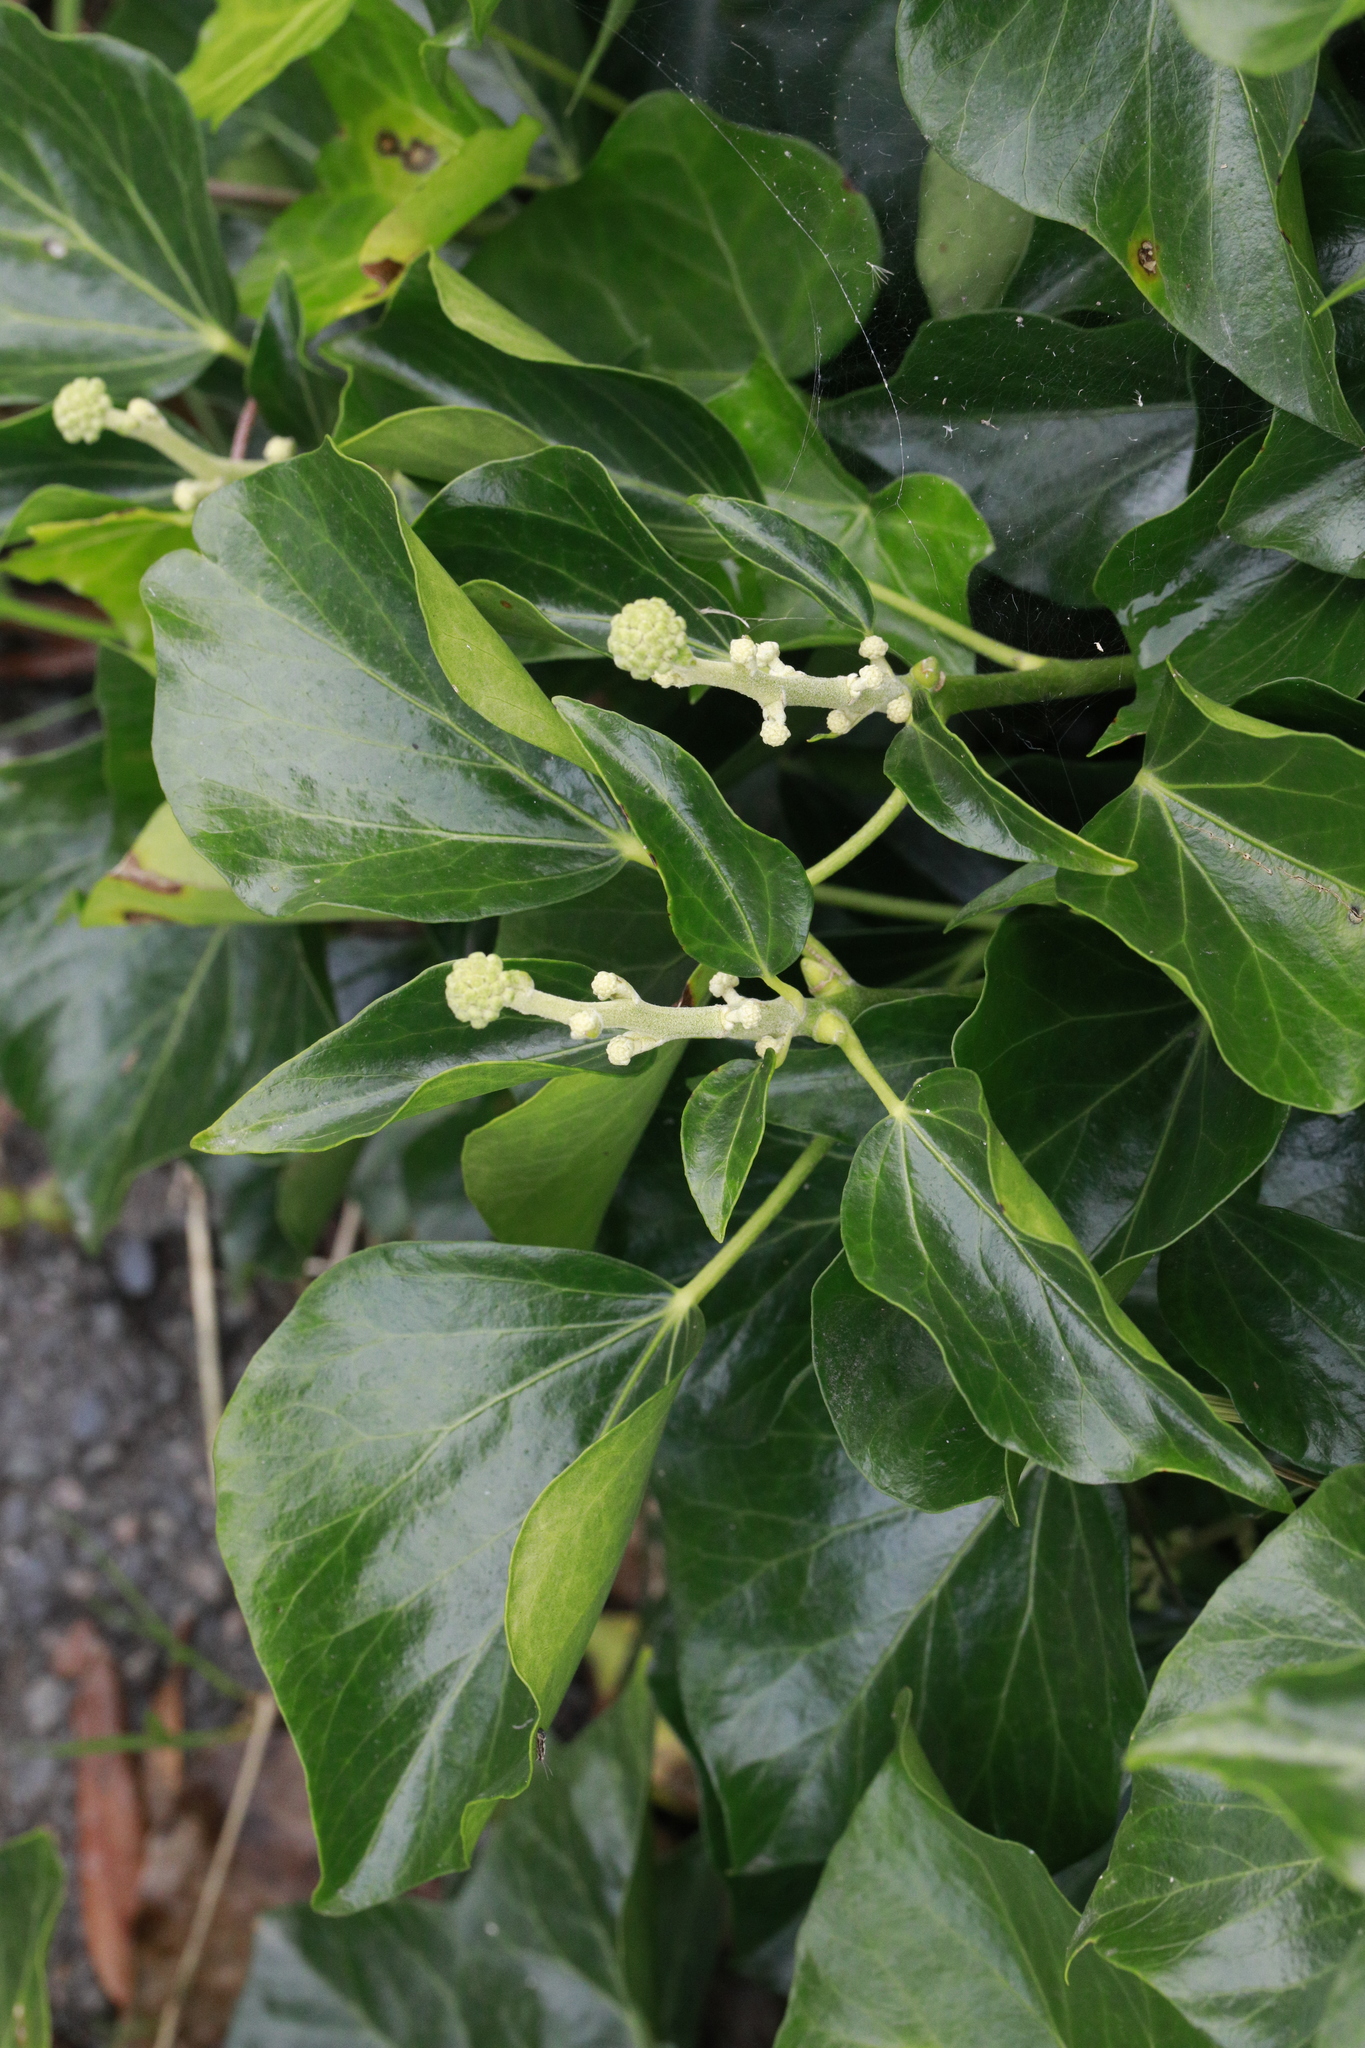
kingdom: Plantae
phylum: Tracheophyta
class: Magnoliopsida
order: Apiales
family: Araliaceae
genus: Hedera
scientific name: Hedera helix
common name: Ivy
